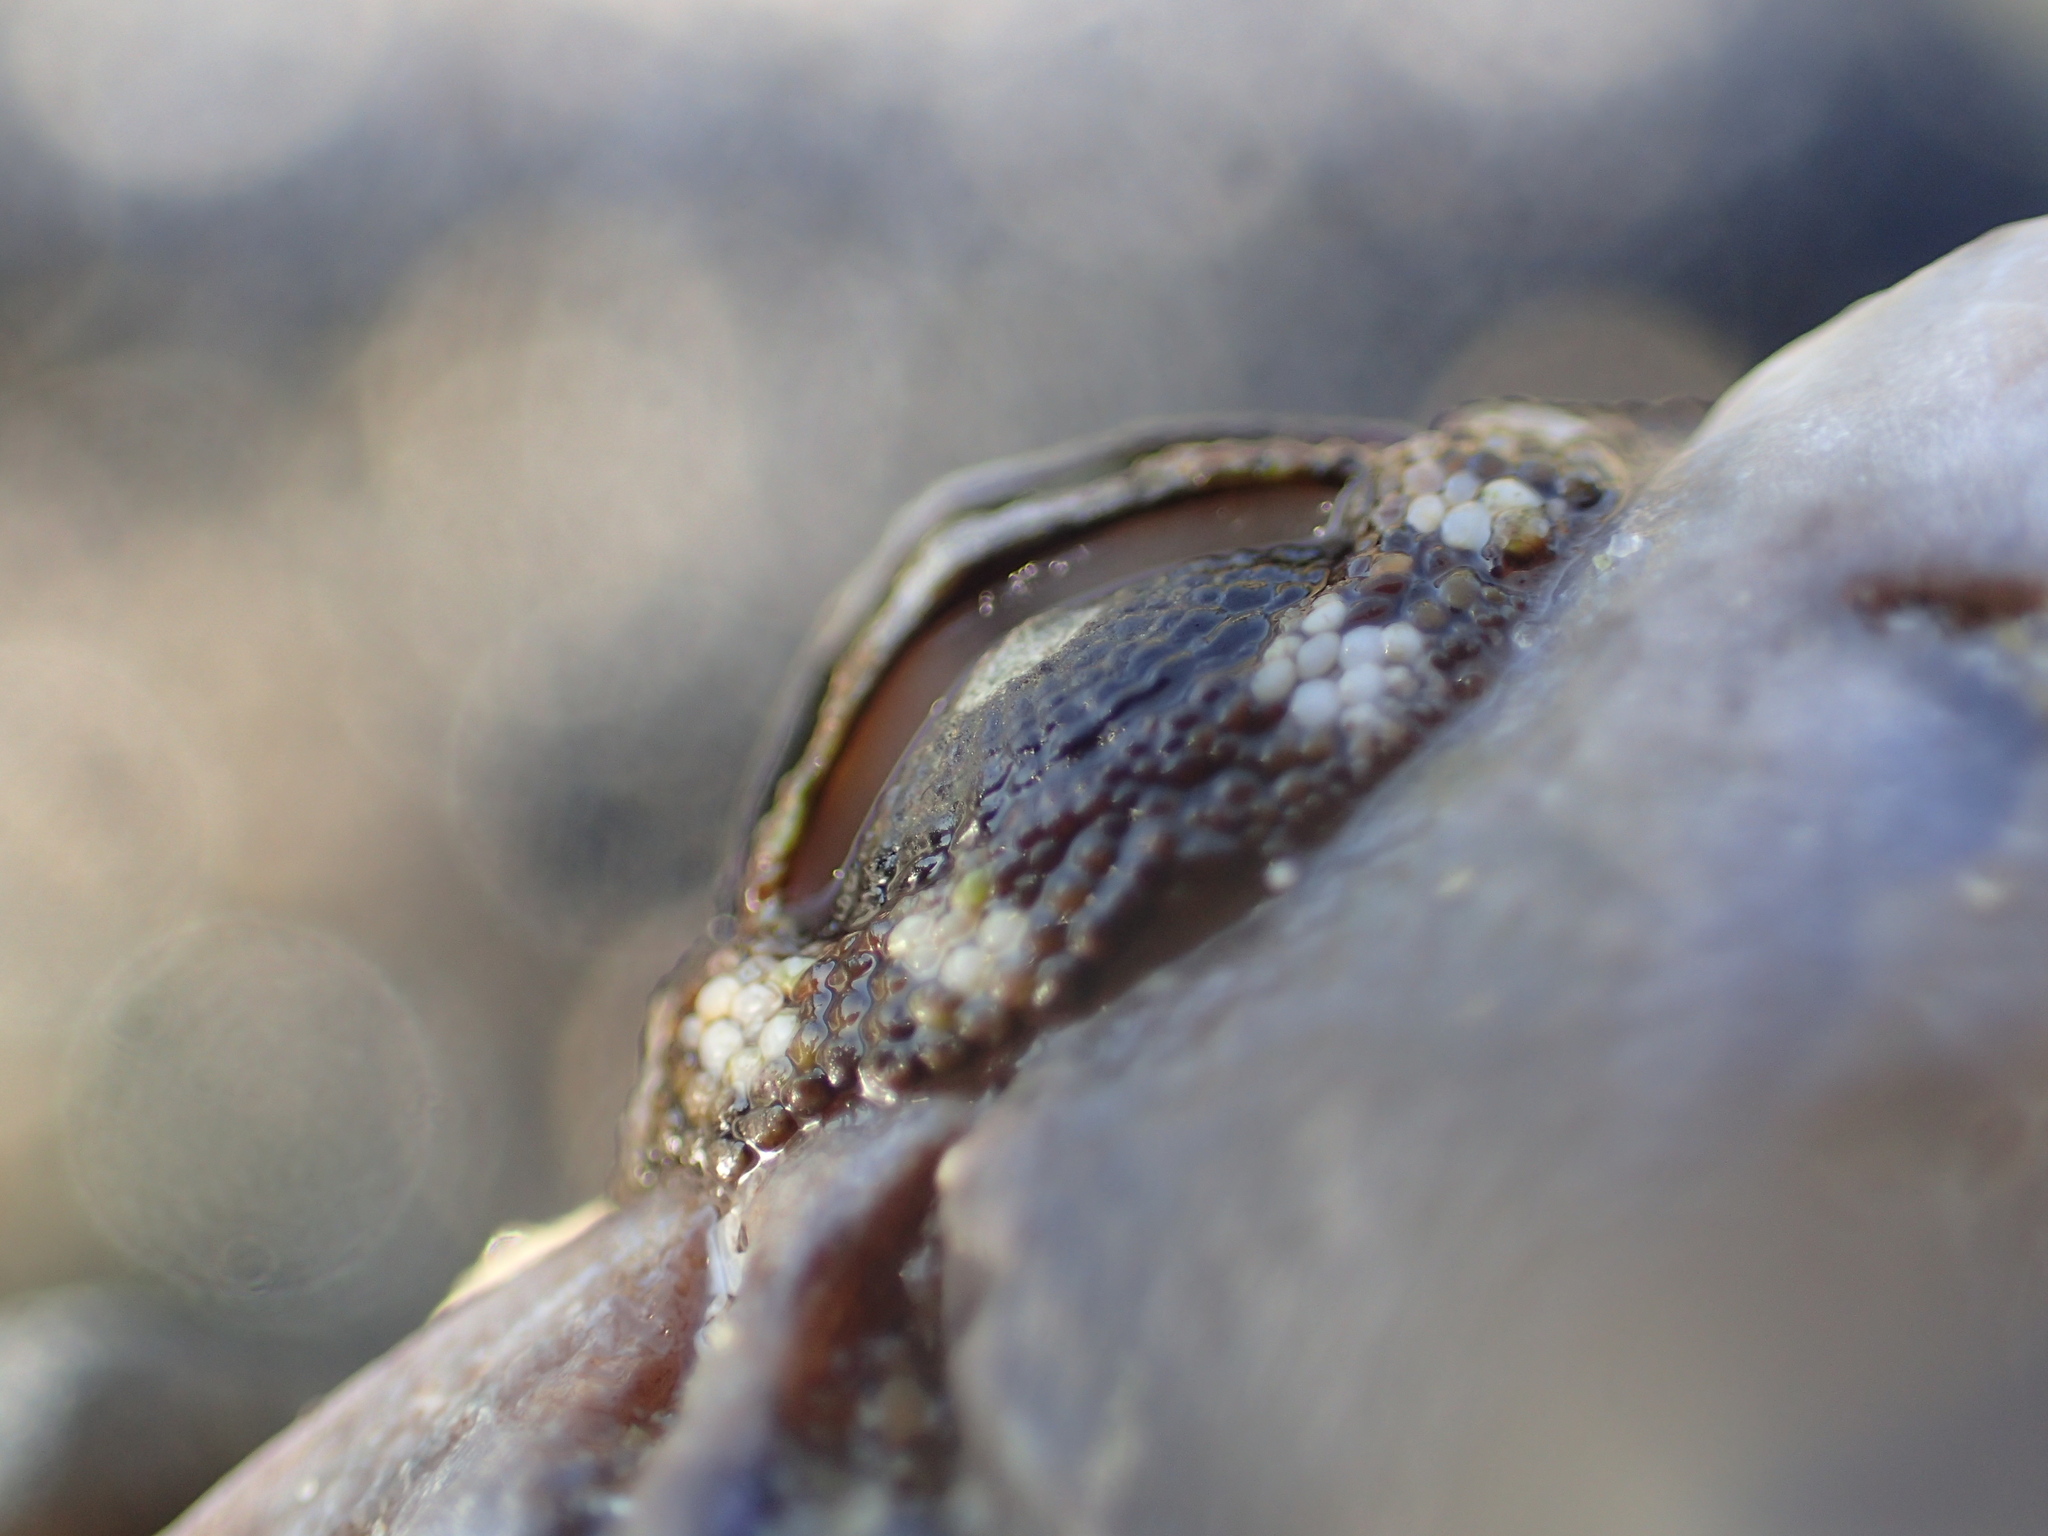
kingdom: Animalia
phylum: Mollusca
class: Polyplacophora
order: Chitonida
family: Chitonidae
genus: Sypharochiton
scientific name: Sypharochiton pelliserpentis
